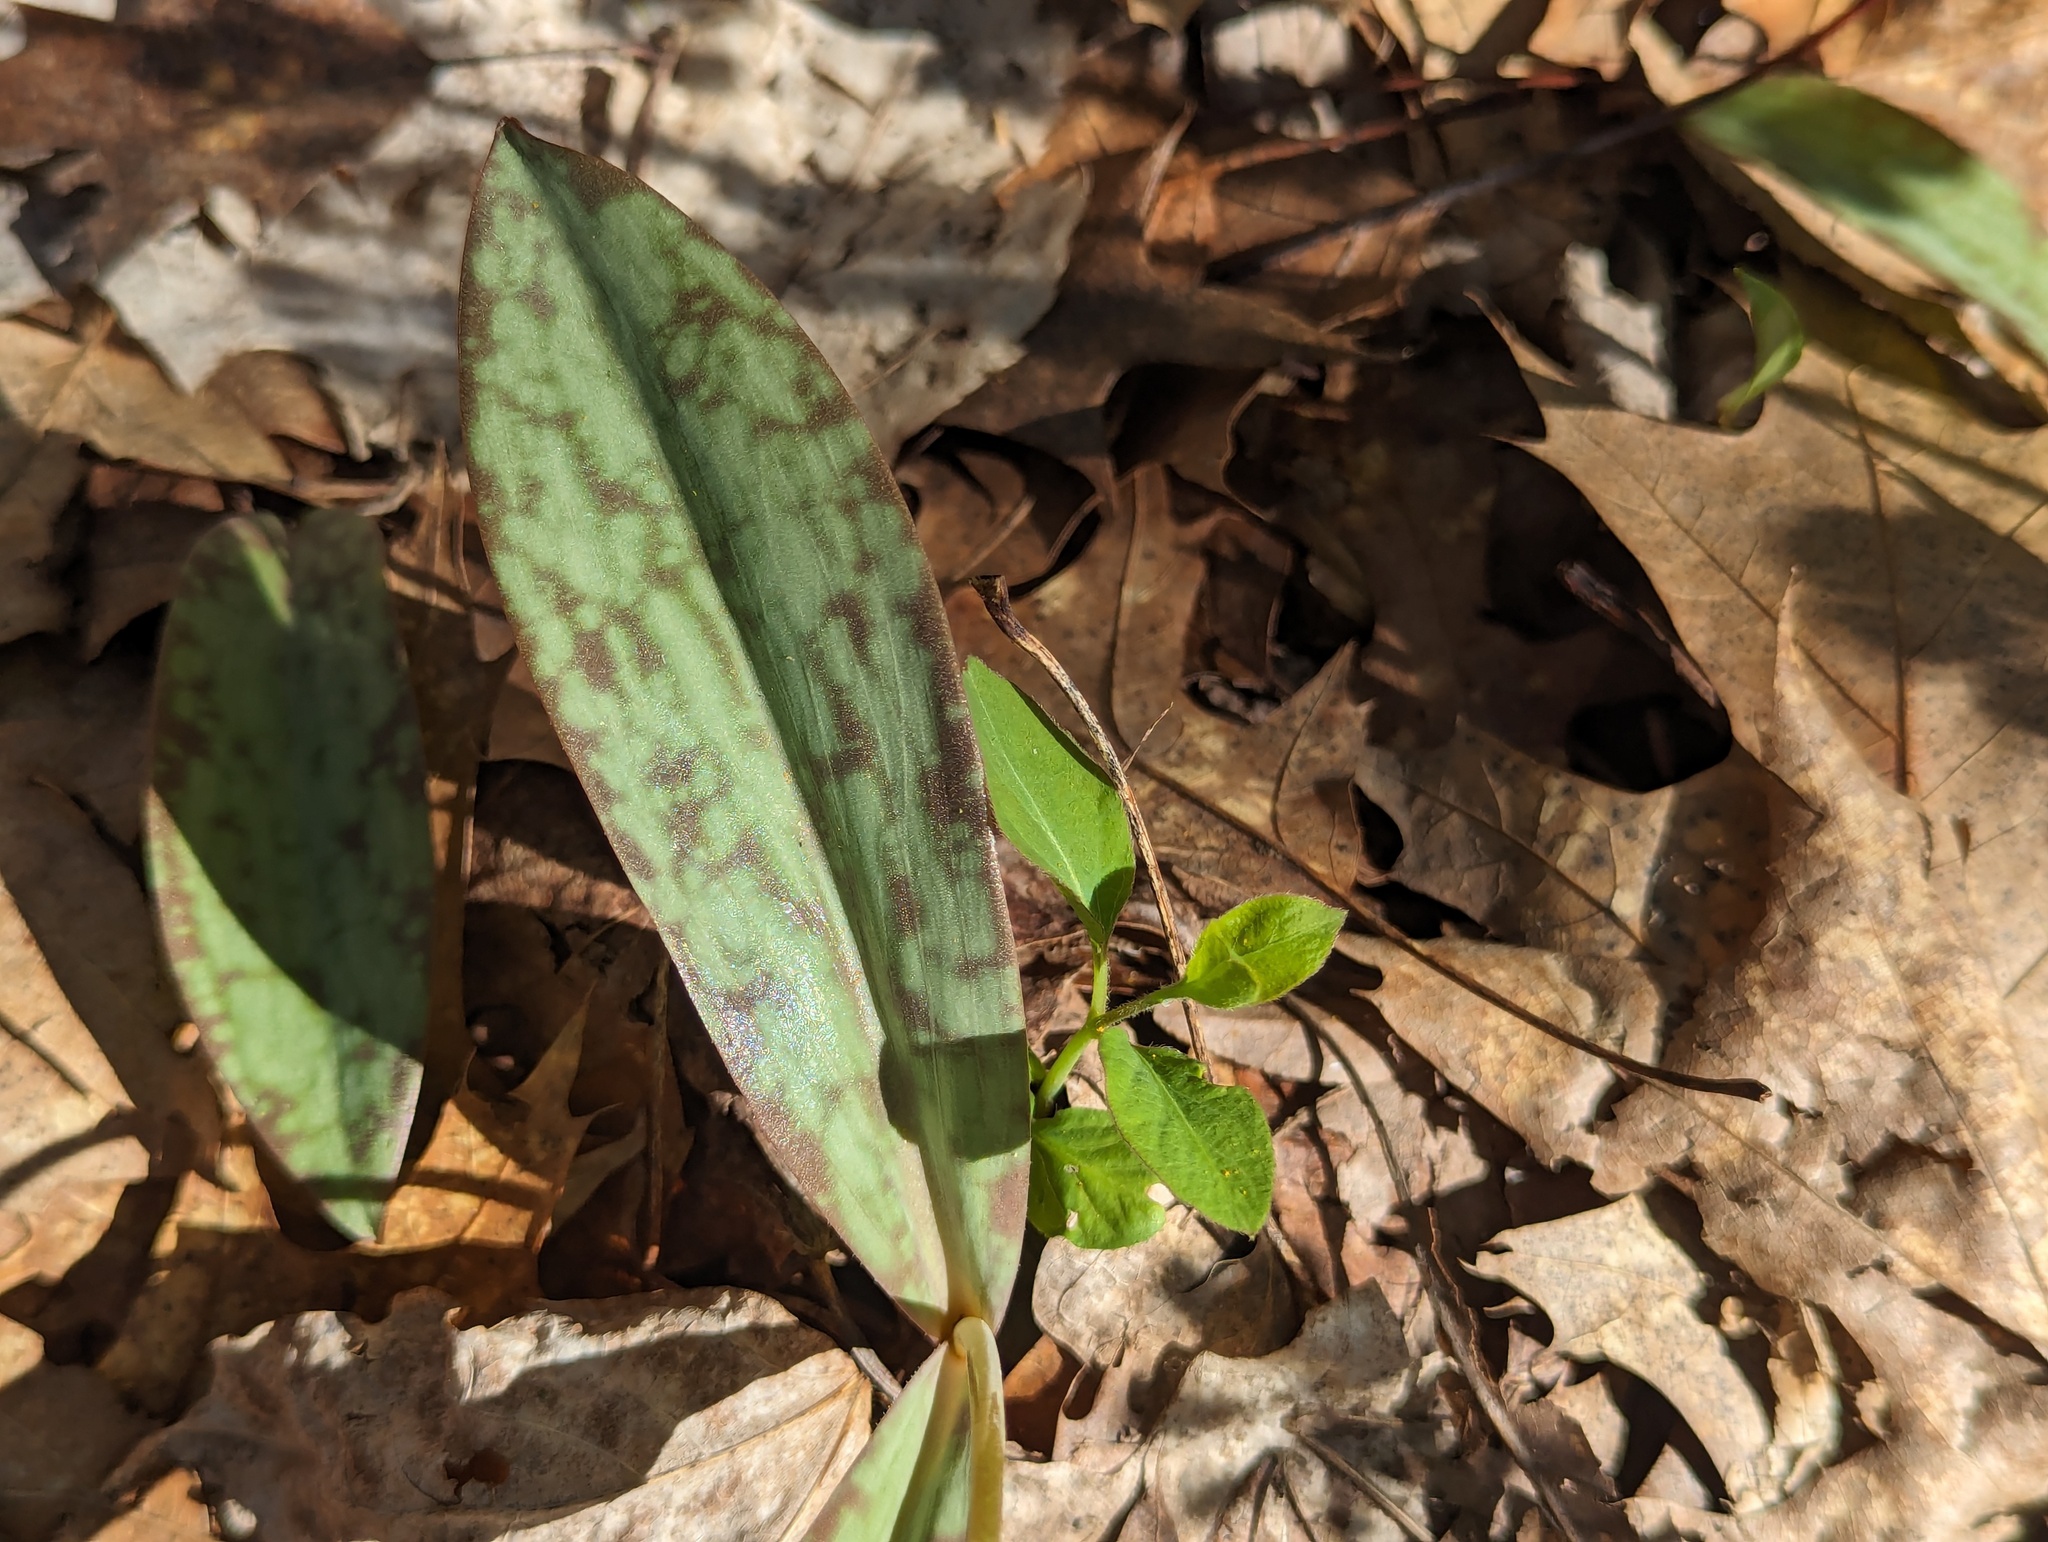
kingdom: Plantae
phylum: Tracheophyta
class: Liliopsida
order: Liliales
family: Liliaceae
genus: Erythronium
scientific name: Erythronium americanum
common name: Yellow adder's-tongue
